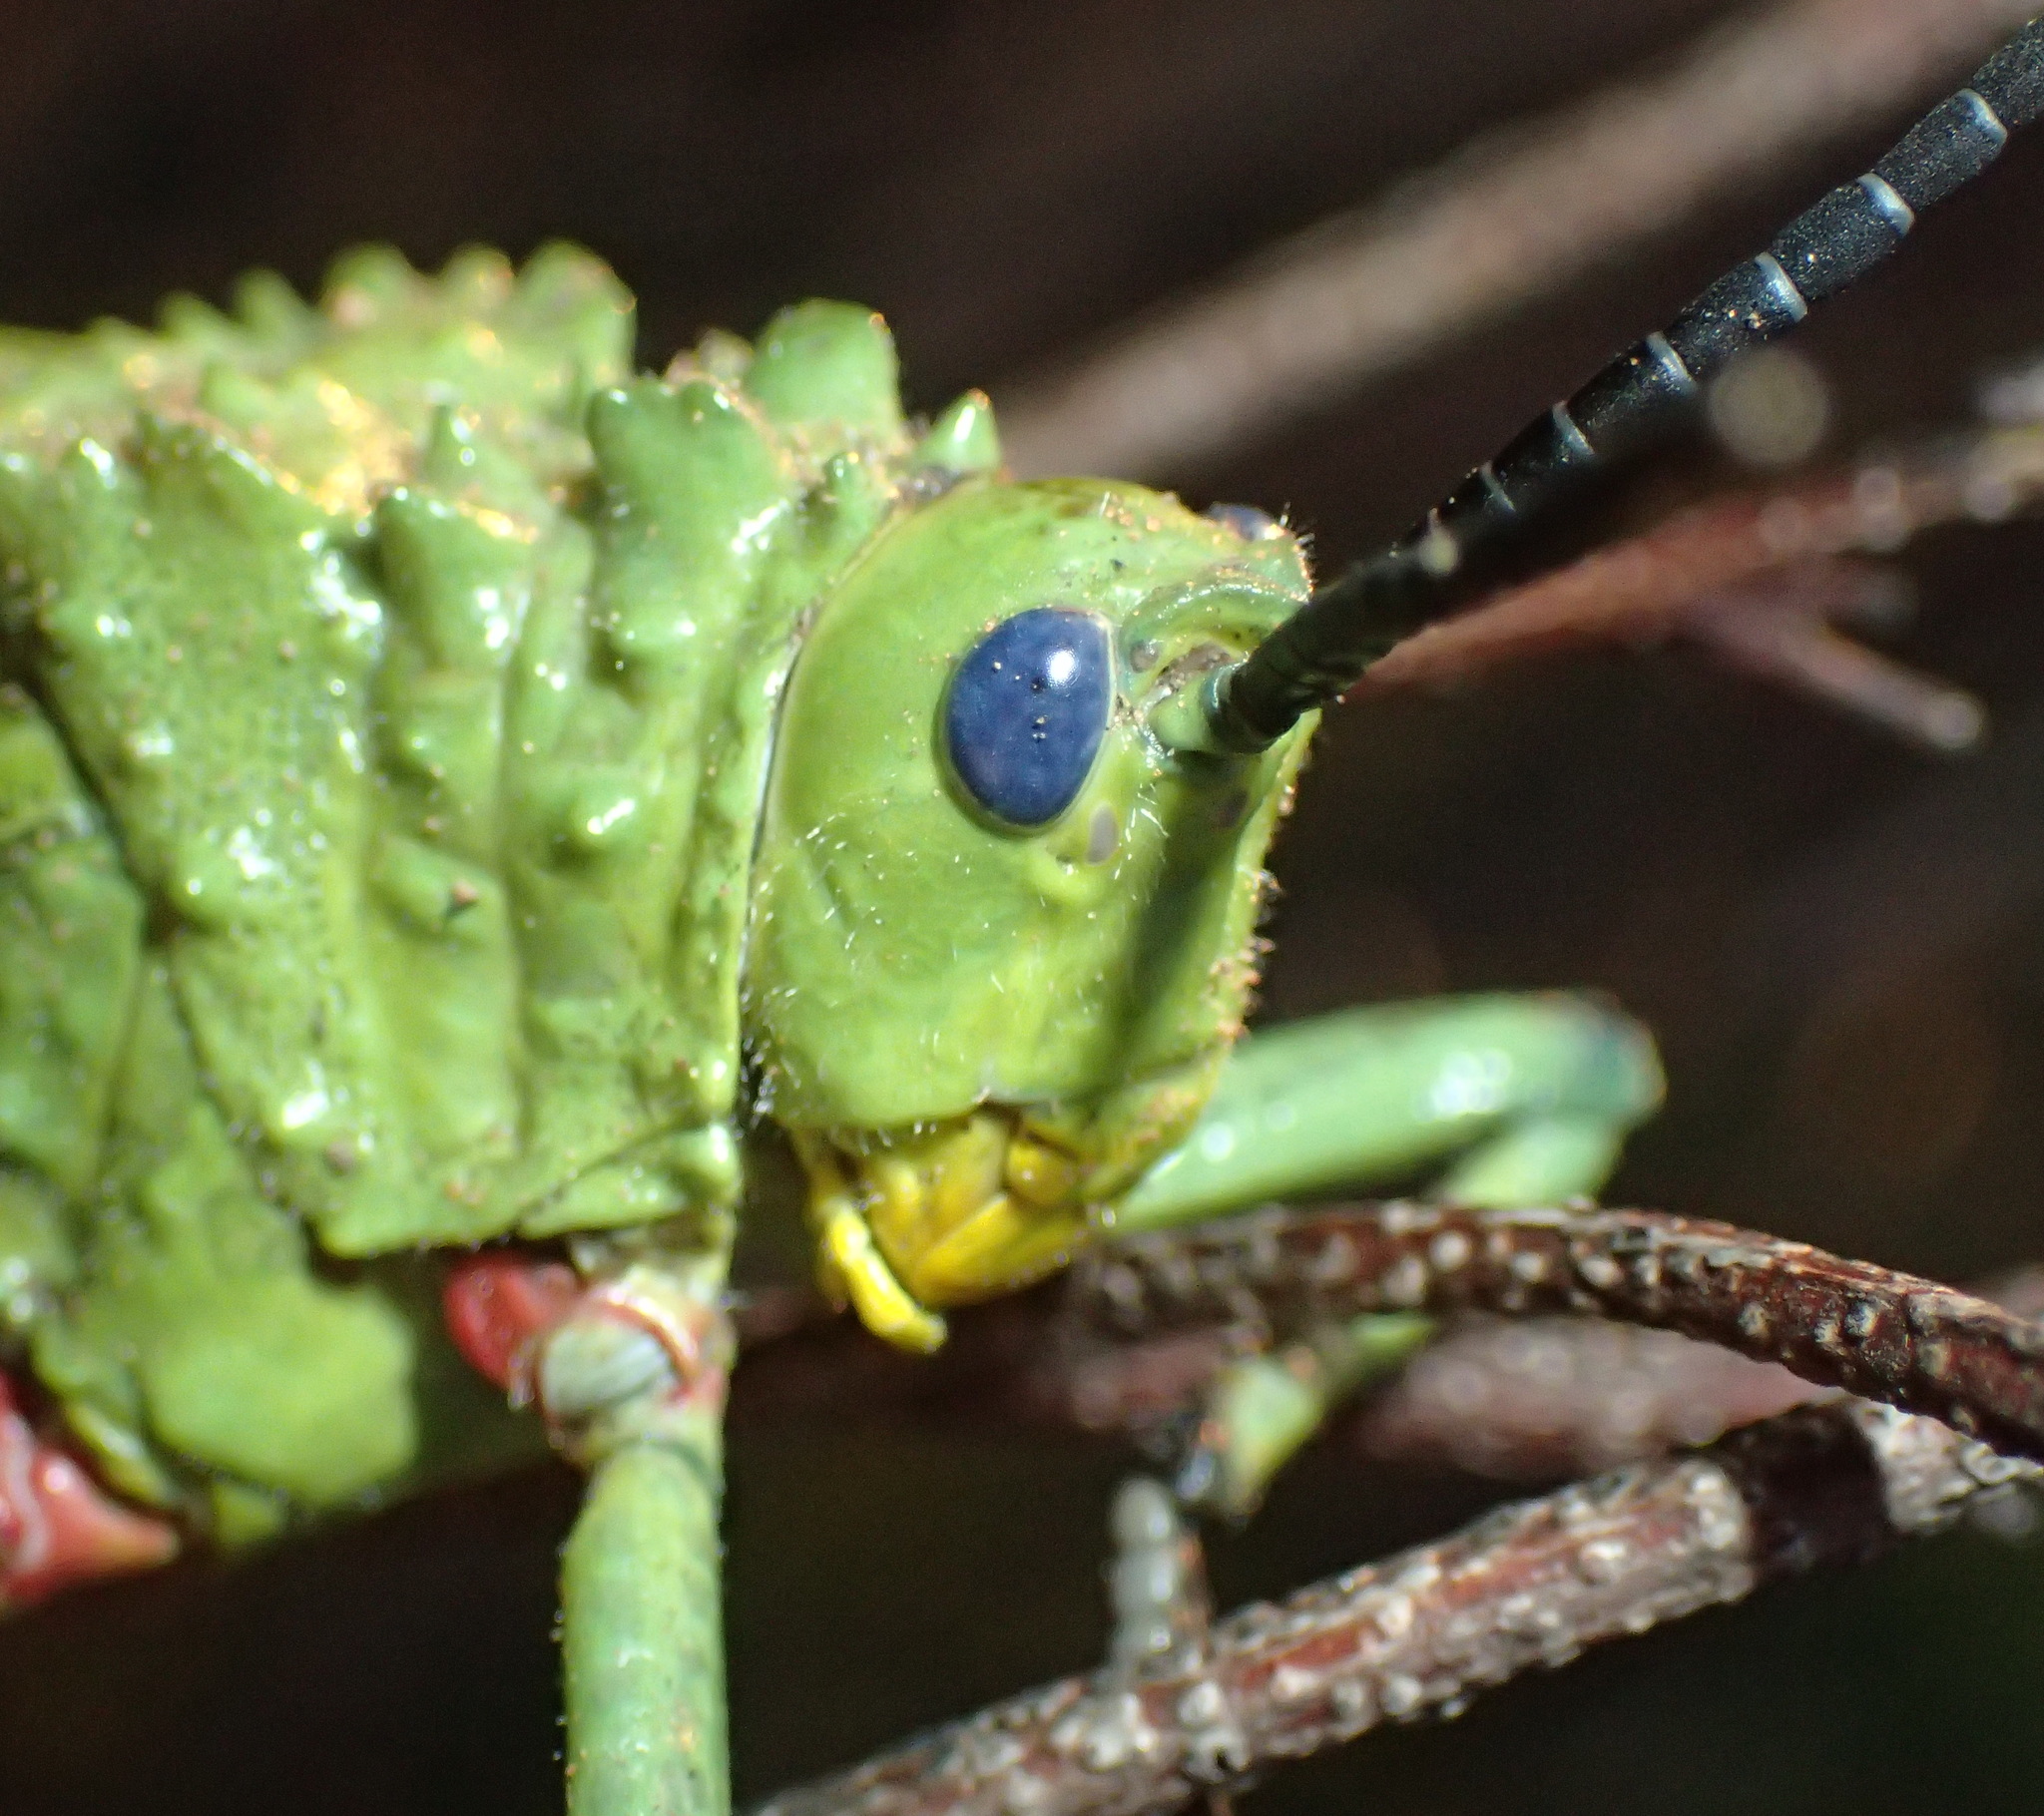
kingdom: Animalia
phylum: Arthropoda
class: Insecta
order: Orthoptera
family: Pyrgomorphidae
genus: Phymateus
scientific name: Phymateus viridipes
